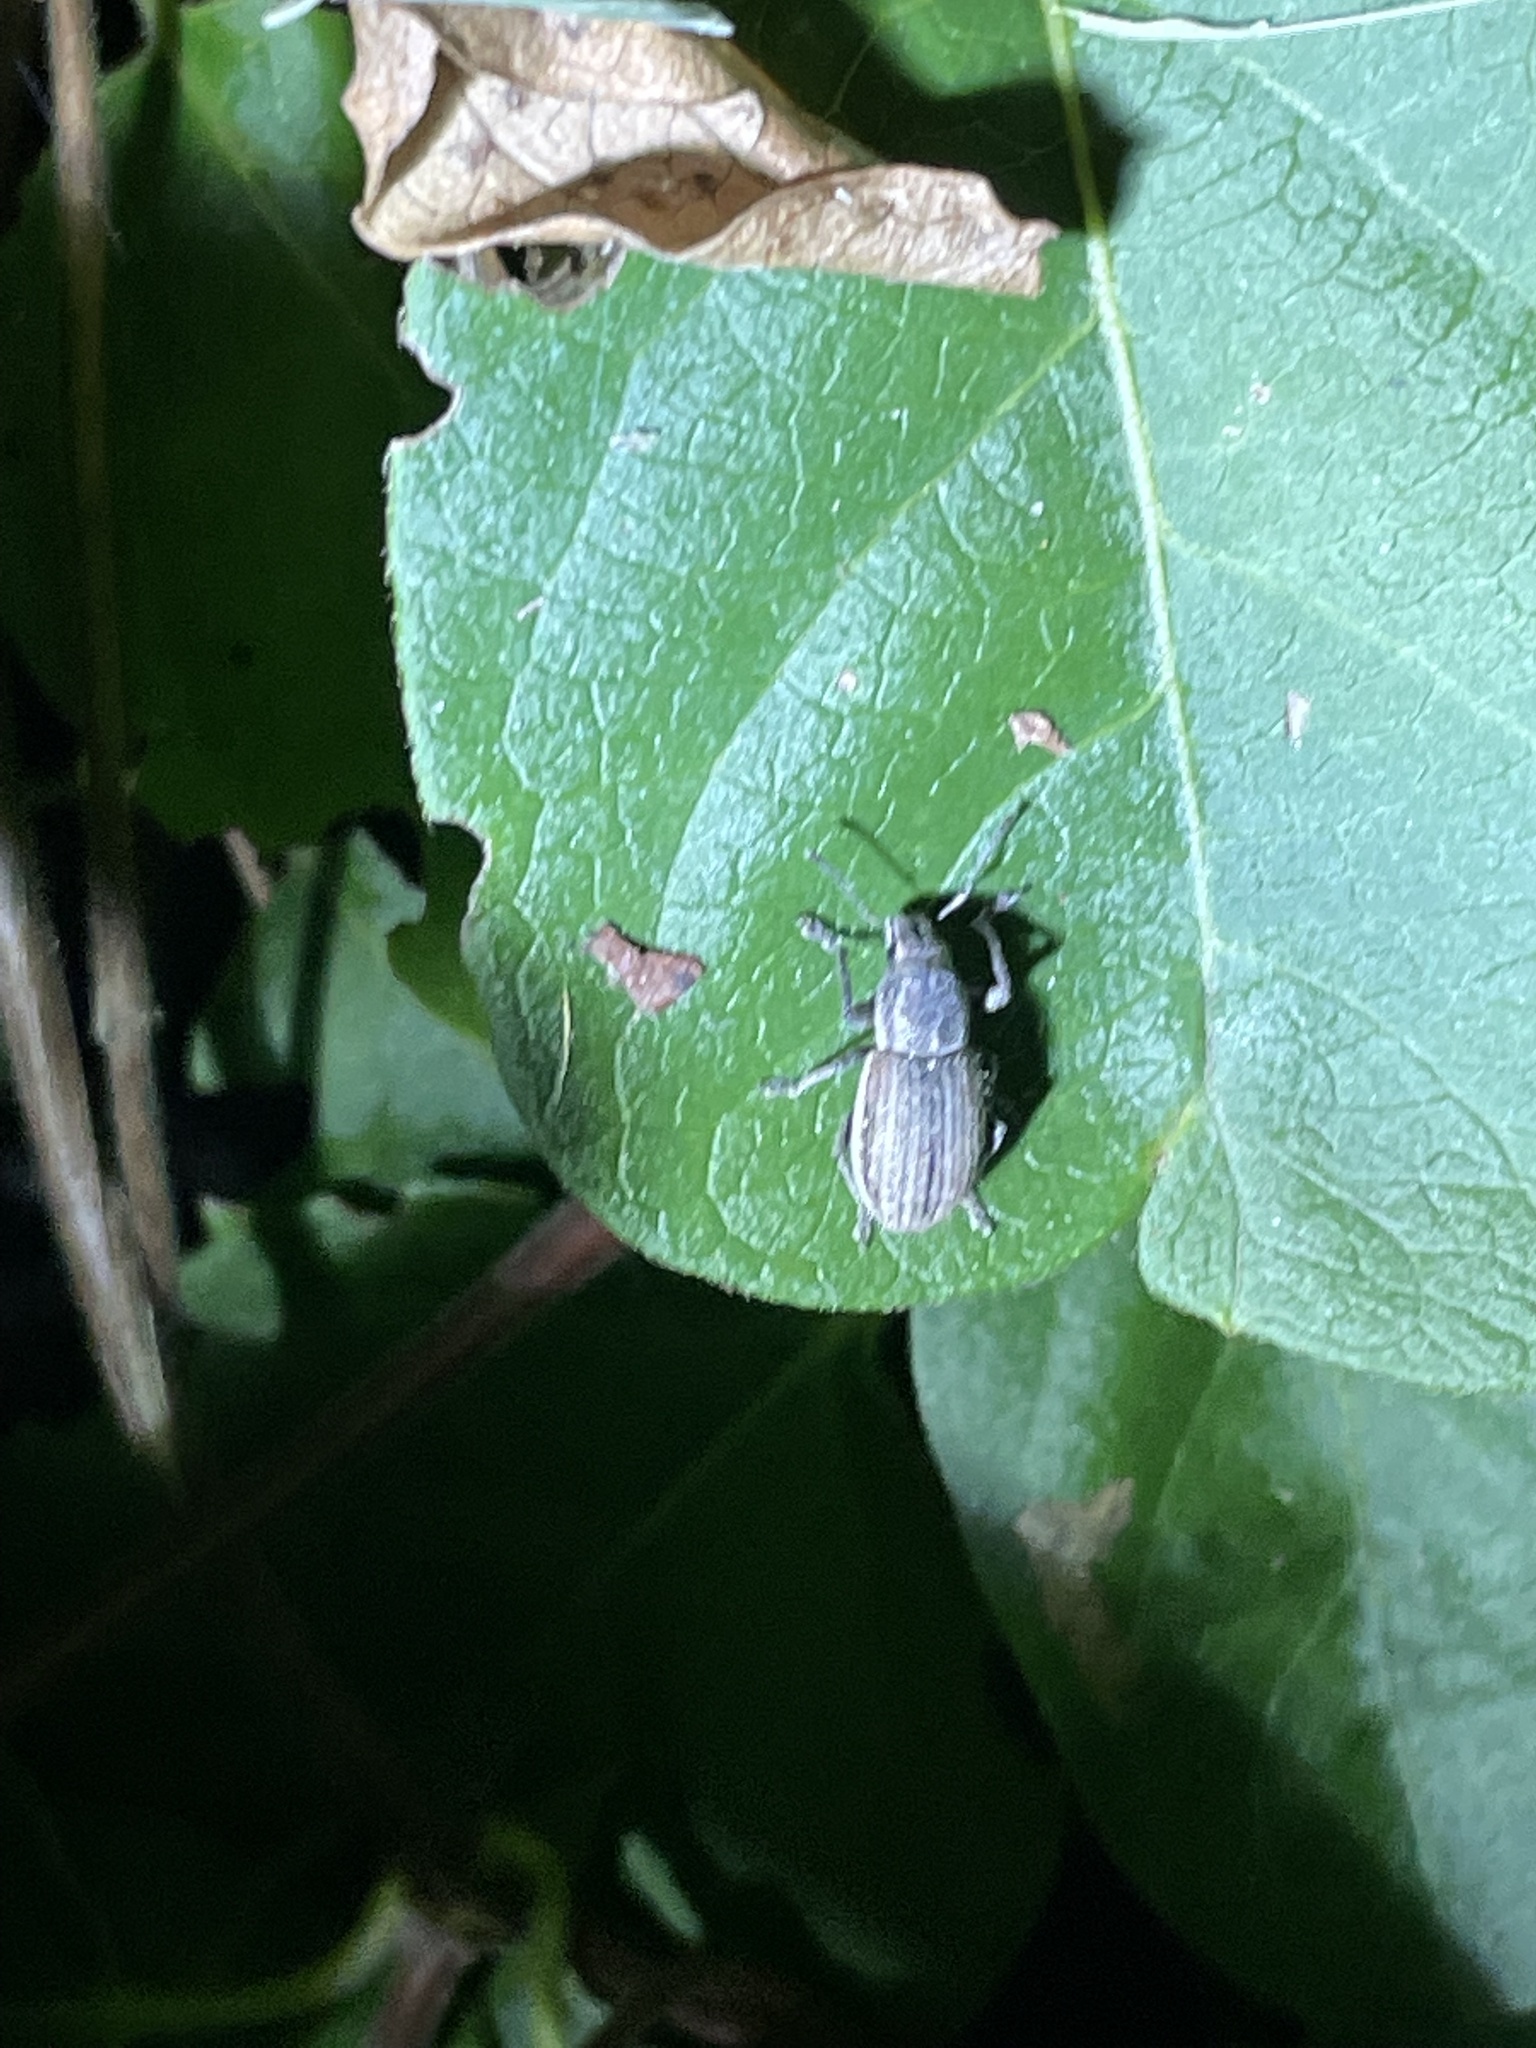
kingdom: Animalia
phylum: Arthropoda
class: Insecta
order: Coleoptera
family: Curculionidae
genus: Naupactus
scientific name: Naupactus leucoloma
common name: Whitefringed beetle
